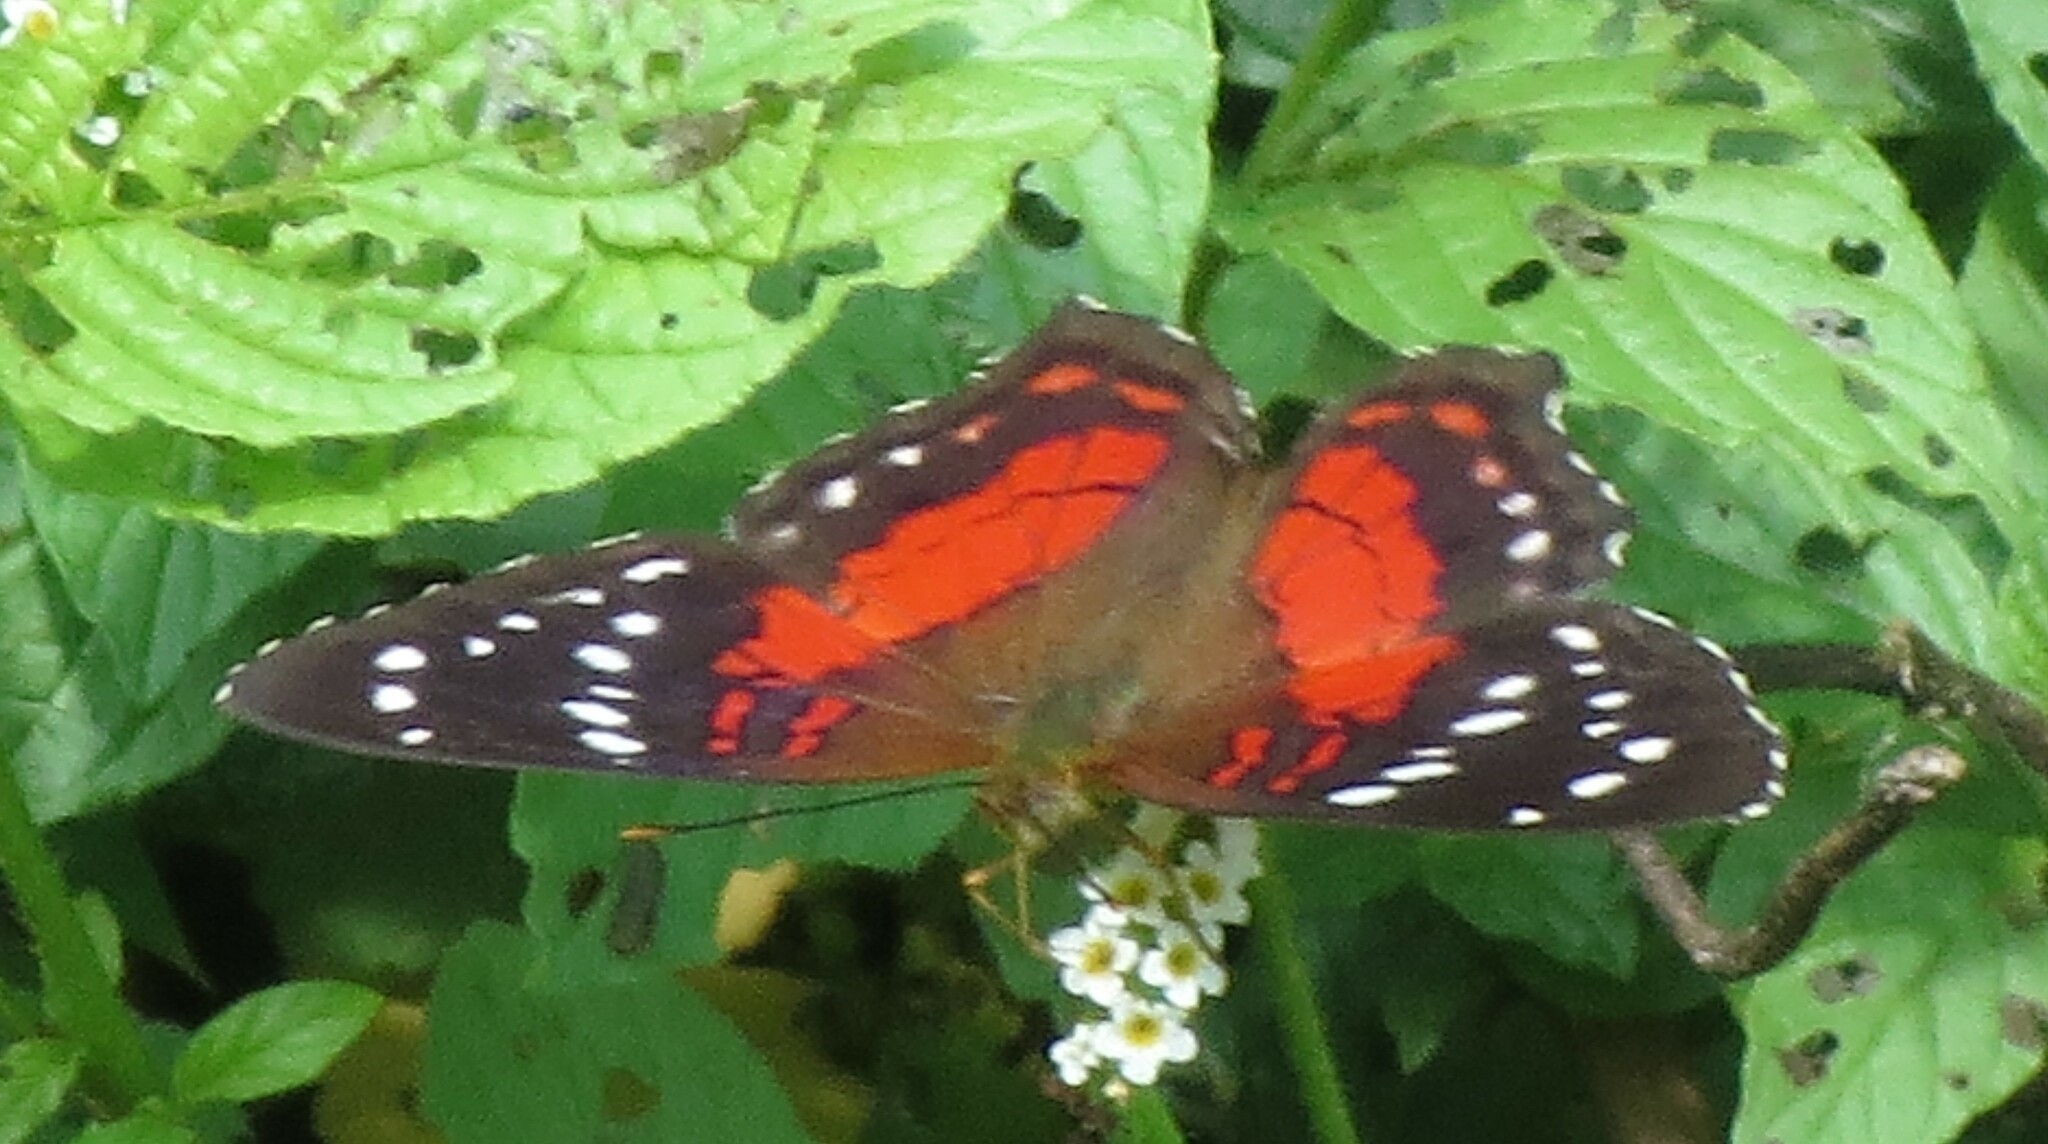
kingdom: Animalia
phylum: Arthropoda
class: Insecta
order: Lepidoptera
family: Nymphalidae
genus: Anartia
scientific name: Anartia amathea
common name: Red peacock
